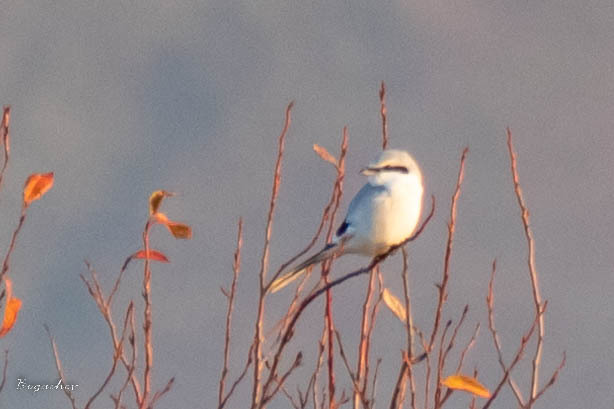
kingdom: Animalia
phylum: Chordata
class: Aves
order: Passeriformes
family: Laniidae
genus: Lanius
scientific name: Lanius excubitor
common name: Great grey shrike
